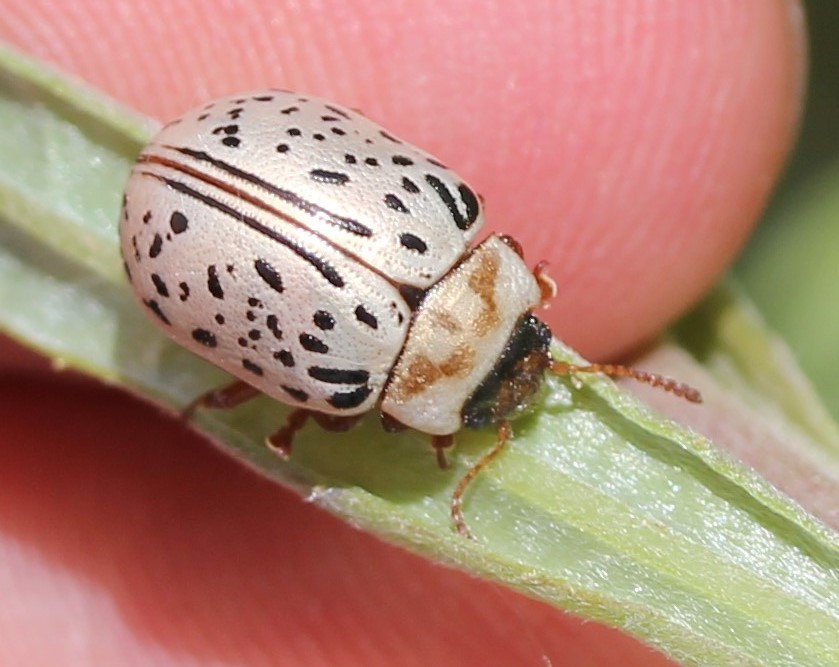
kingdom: Animalia
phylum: Arthropoda
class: Insecta
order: Coleoptera
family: Chrysomelidae
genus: Calligrapha
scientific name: Calligrapha multipunctata
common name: Common willow calligrapher beetle
